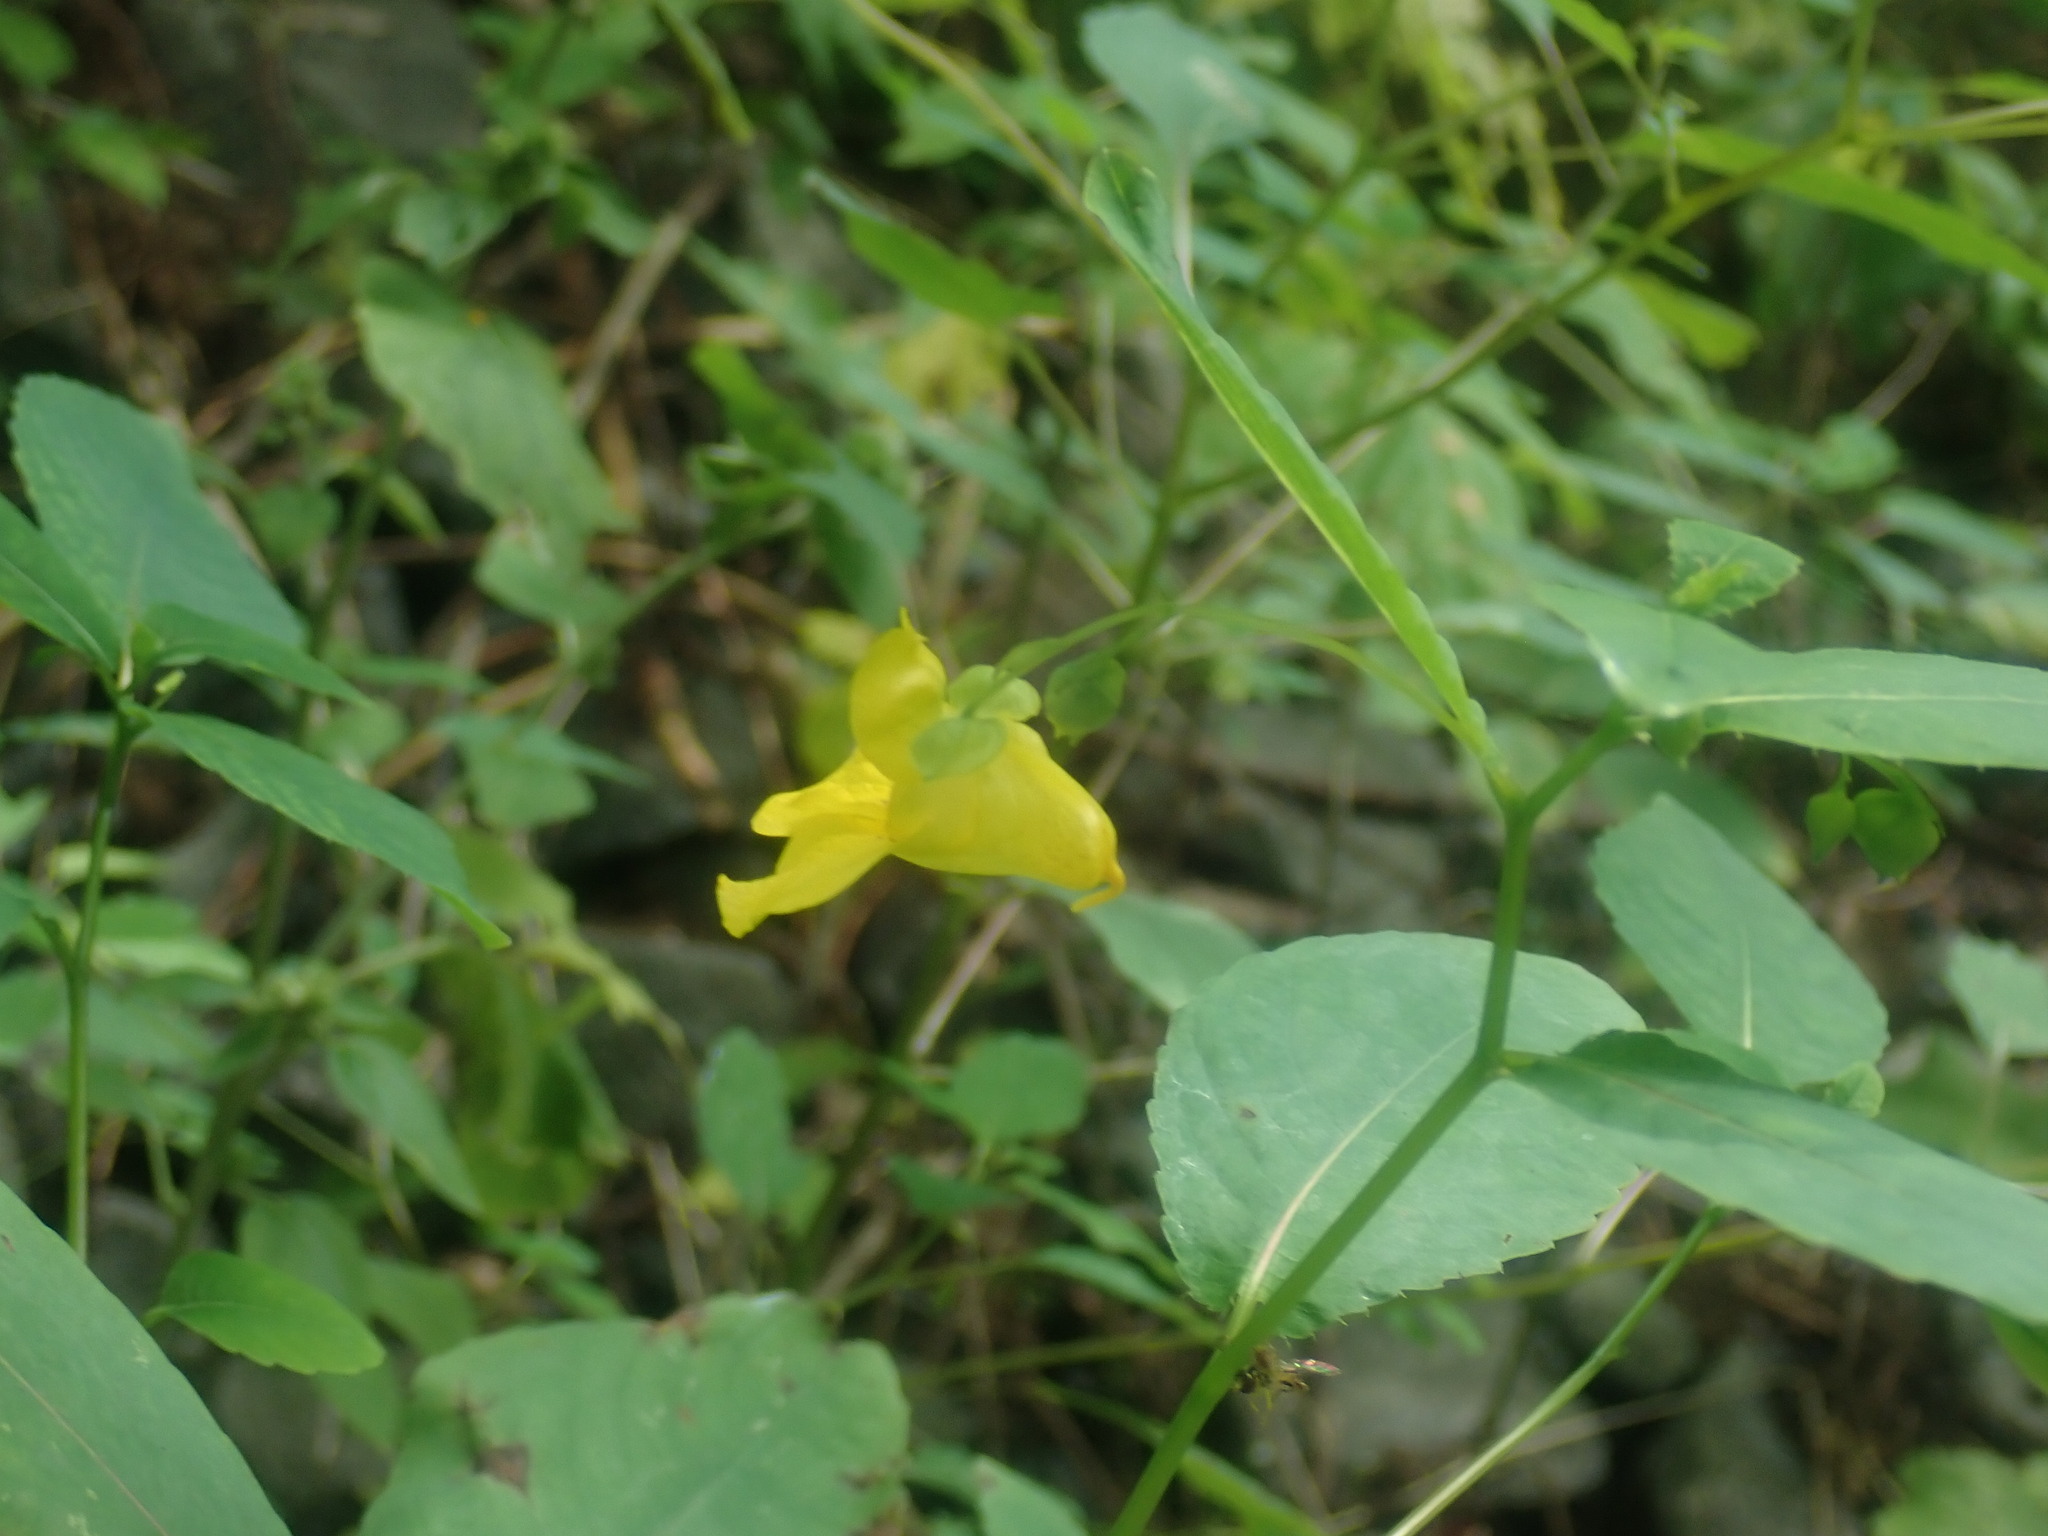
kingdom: Plantae
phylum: Tracheophyta
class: Magnoliopsida
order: Ericales
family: Balsaminaceae
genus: Impatiens
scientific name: Impatiens pallida
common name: Pale snapweed
